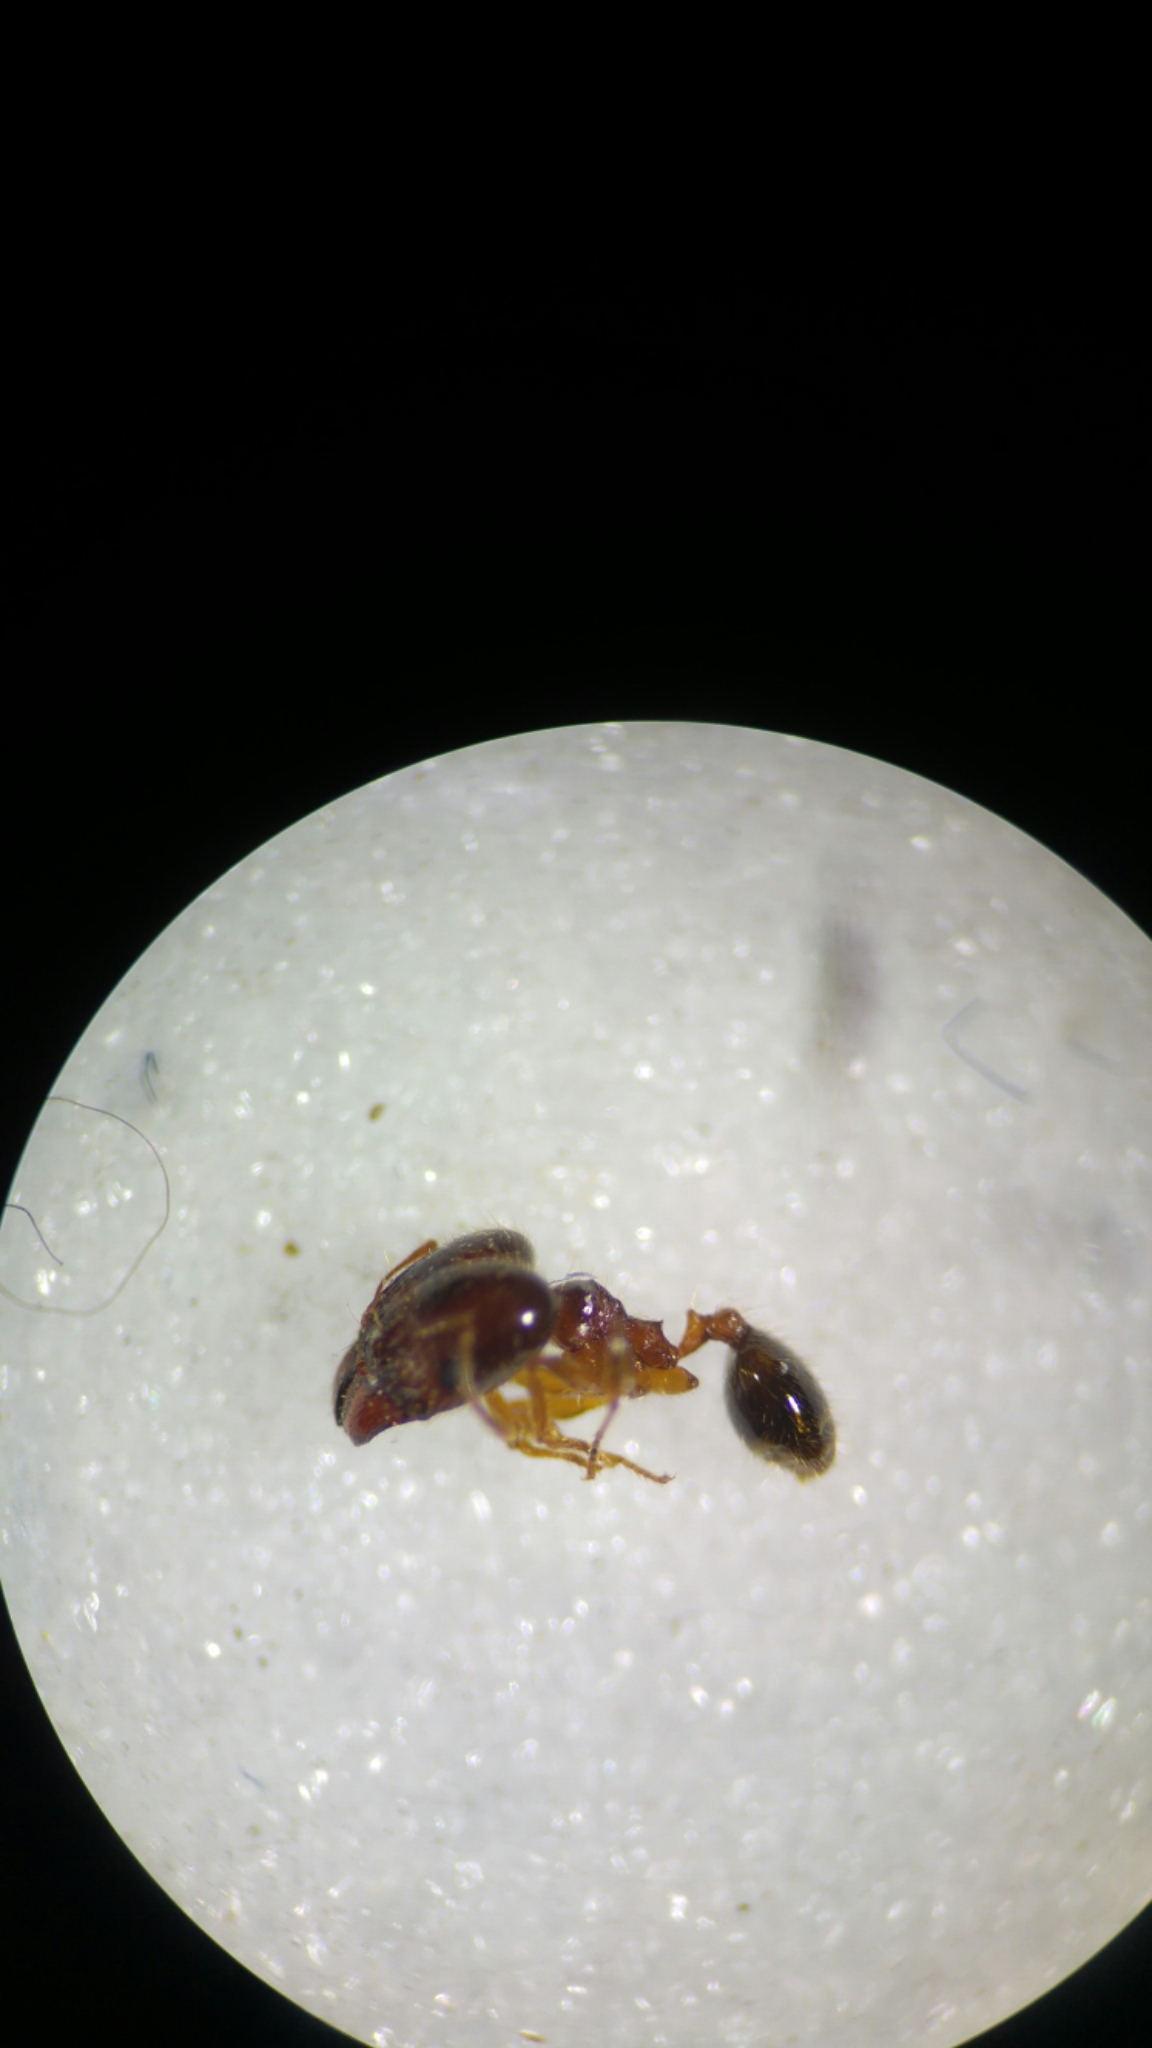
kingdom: Animalia
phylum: Arthropoda
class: Insecta
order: Hymenoptera
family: Formicidae
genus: Pheidole
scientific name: Pheidole pallidula
